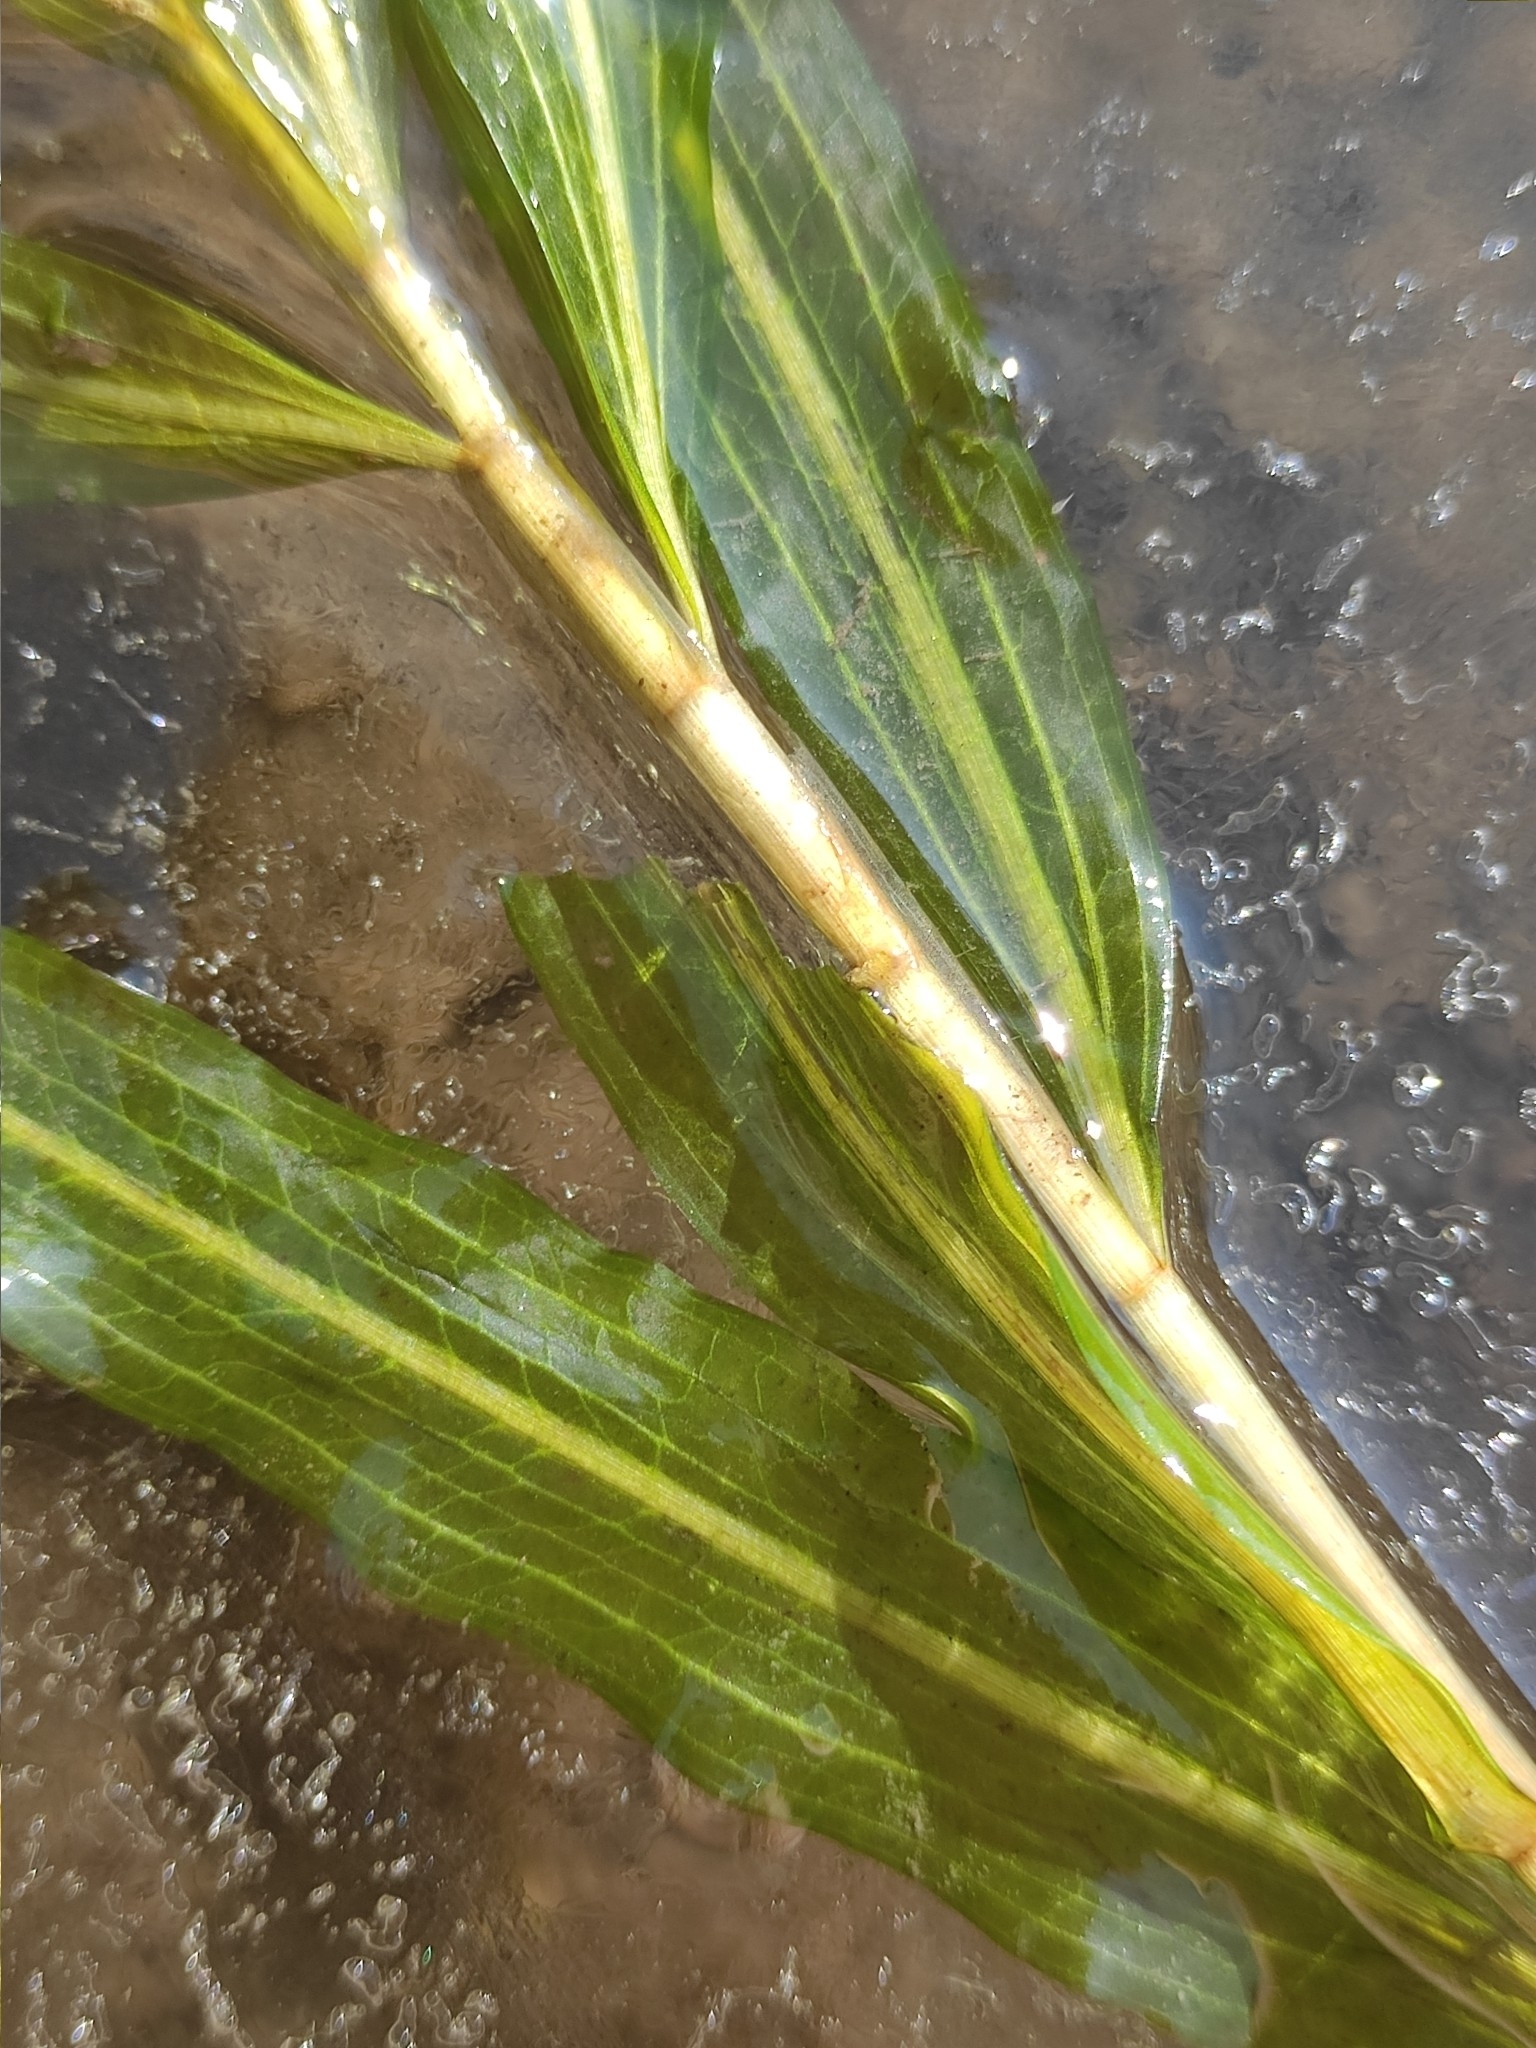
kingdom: Plantae
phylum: Tracheophyta
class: Liliopsida
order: Alismatales
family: Potamogetonaceae
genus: Potamogeton
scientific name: Potamogeton praelongus
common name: Long-stalked pondweed
